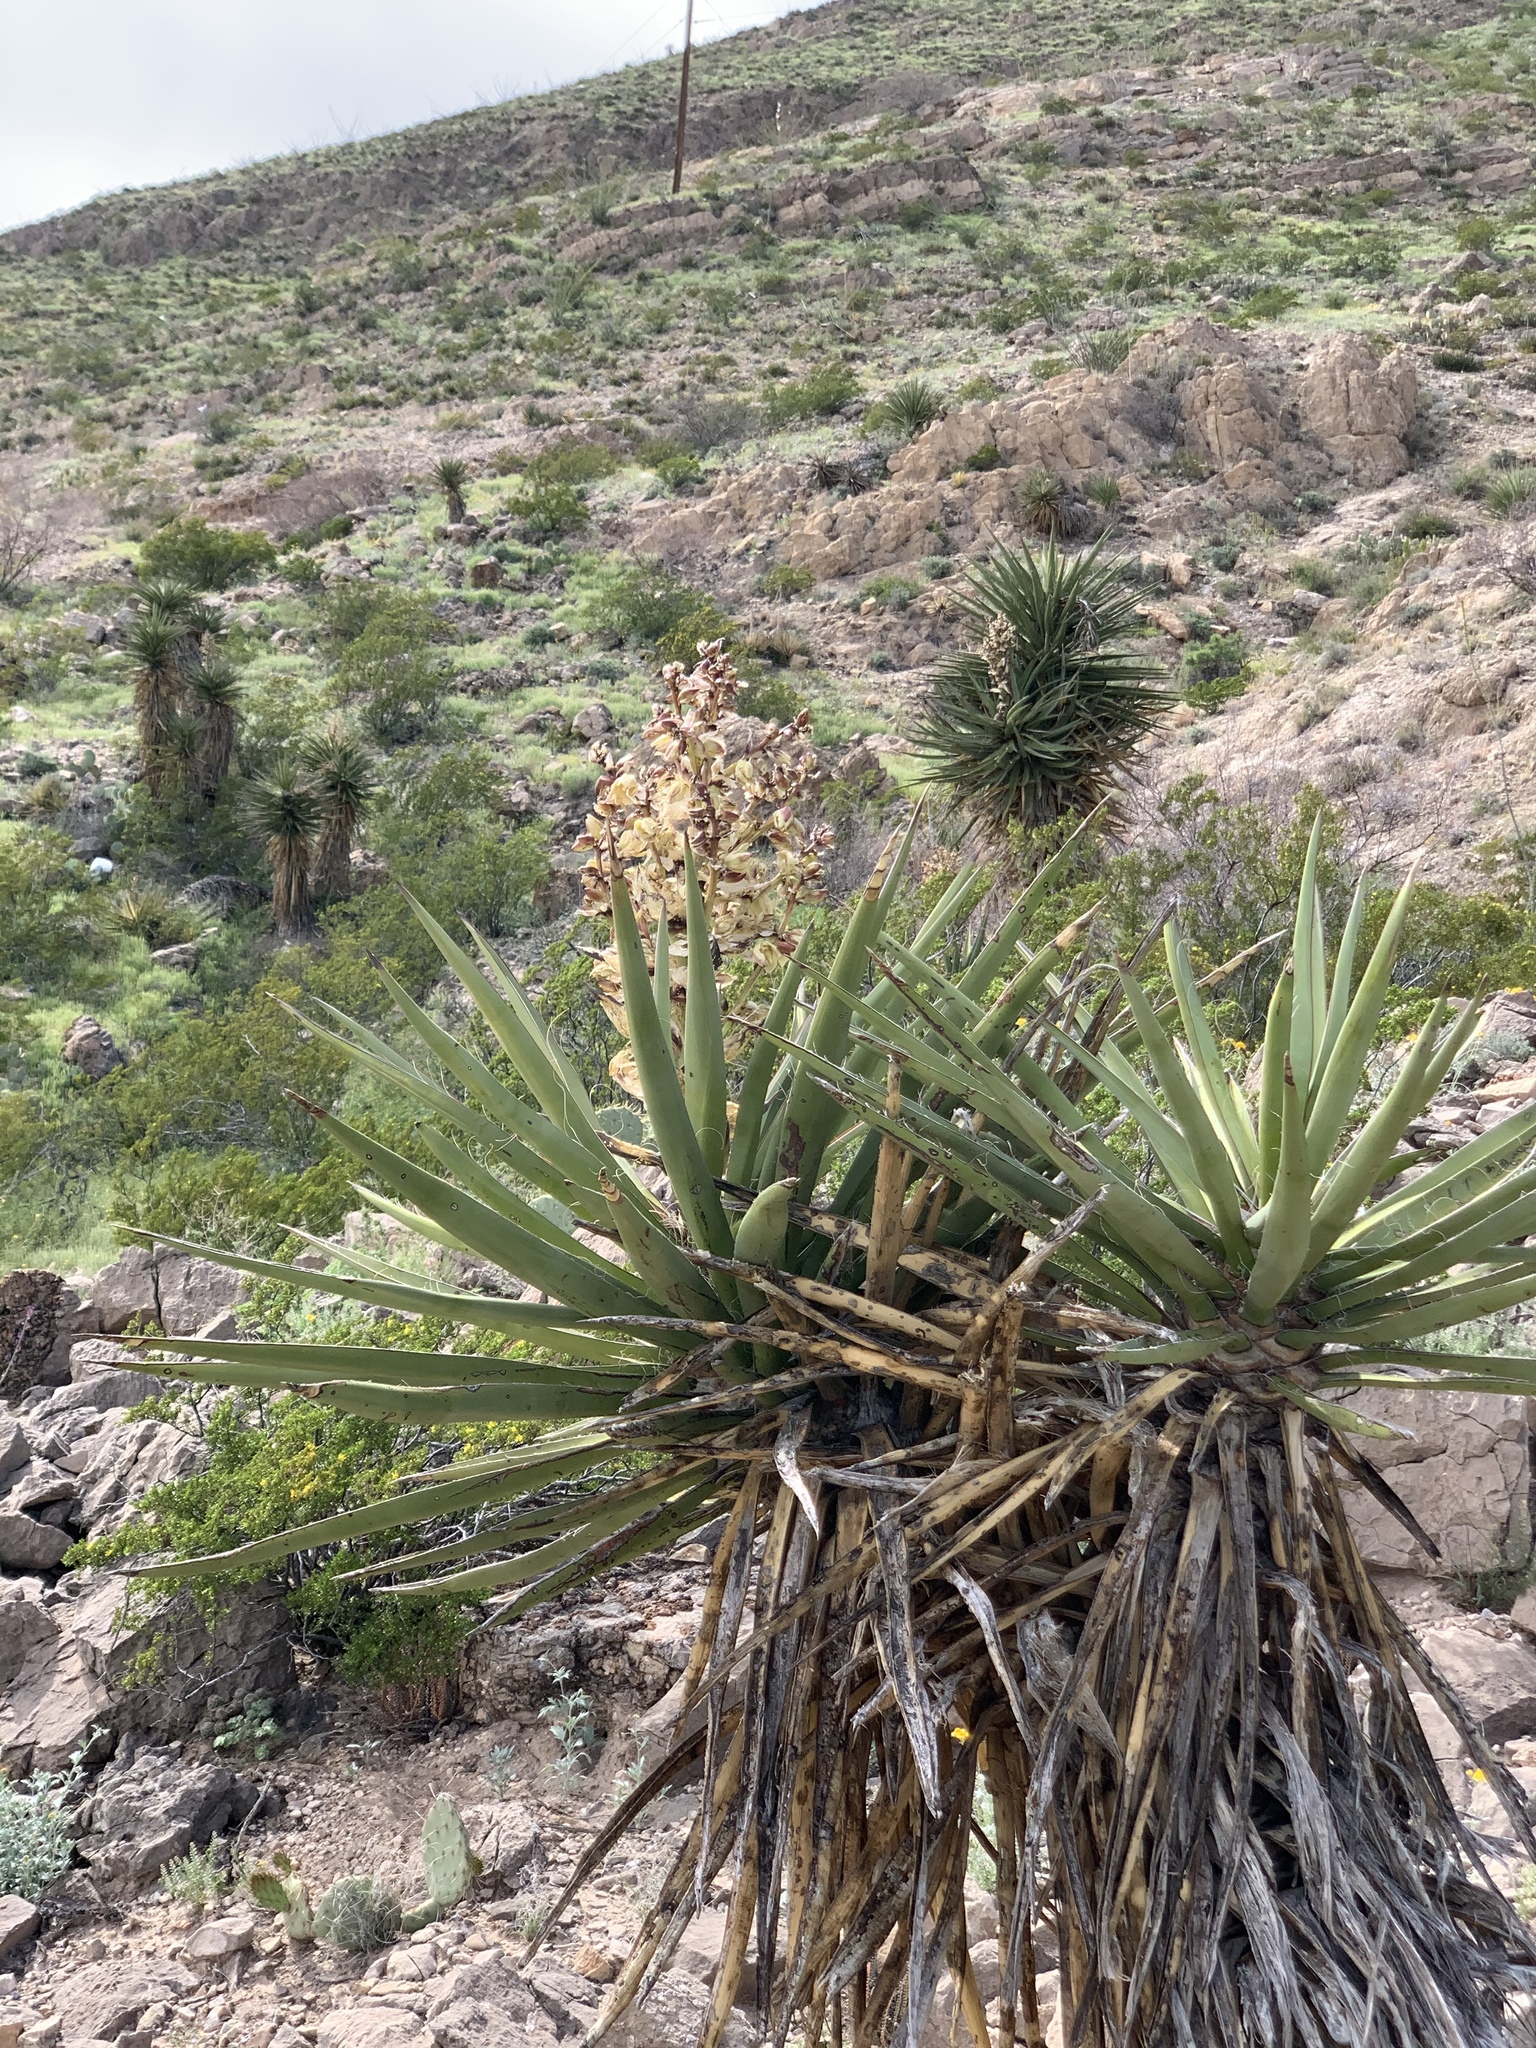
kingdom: Plantae
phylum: Tracheophyta
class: Liliopsida
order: Asparagales
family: Asparagaceae
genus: Yucca
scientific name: Yucca treculiana
